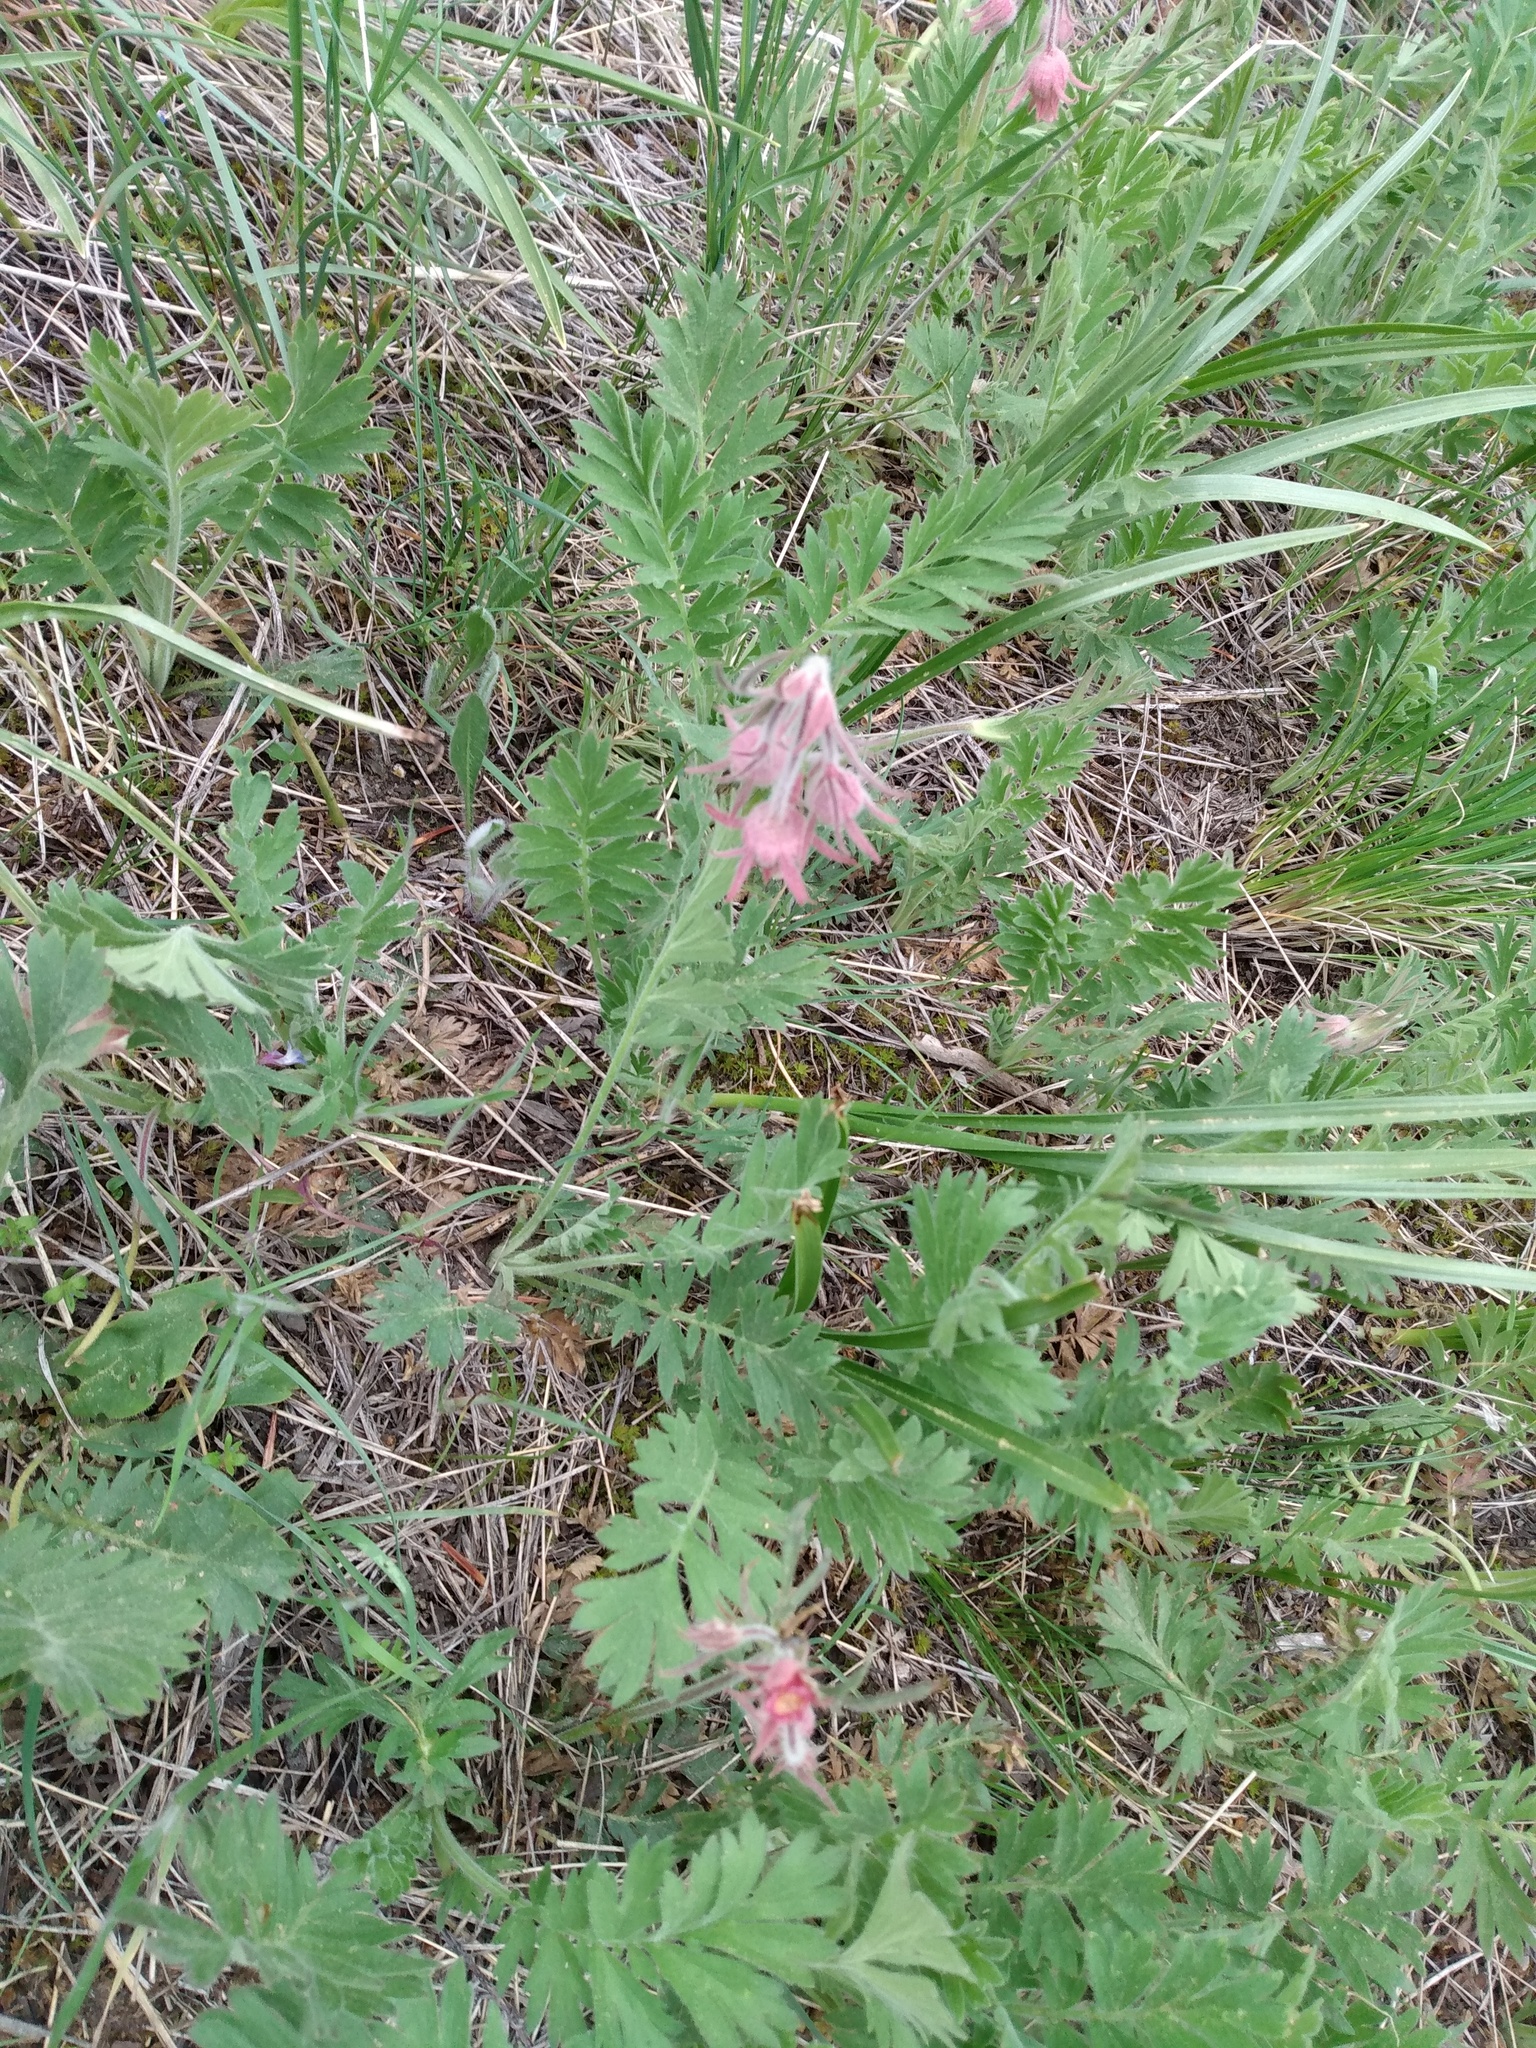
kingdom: Plantae
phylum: Tracheophyta
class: Magnoliopsida
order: Rosales
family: Rosaceae
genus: Geum
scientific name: Geum triflorum
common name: Old man's whiskers
